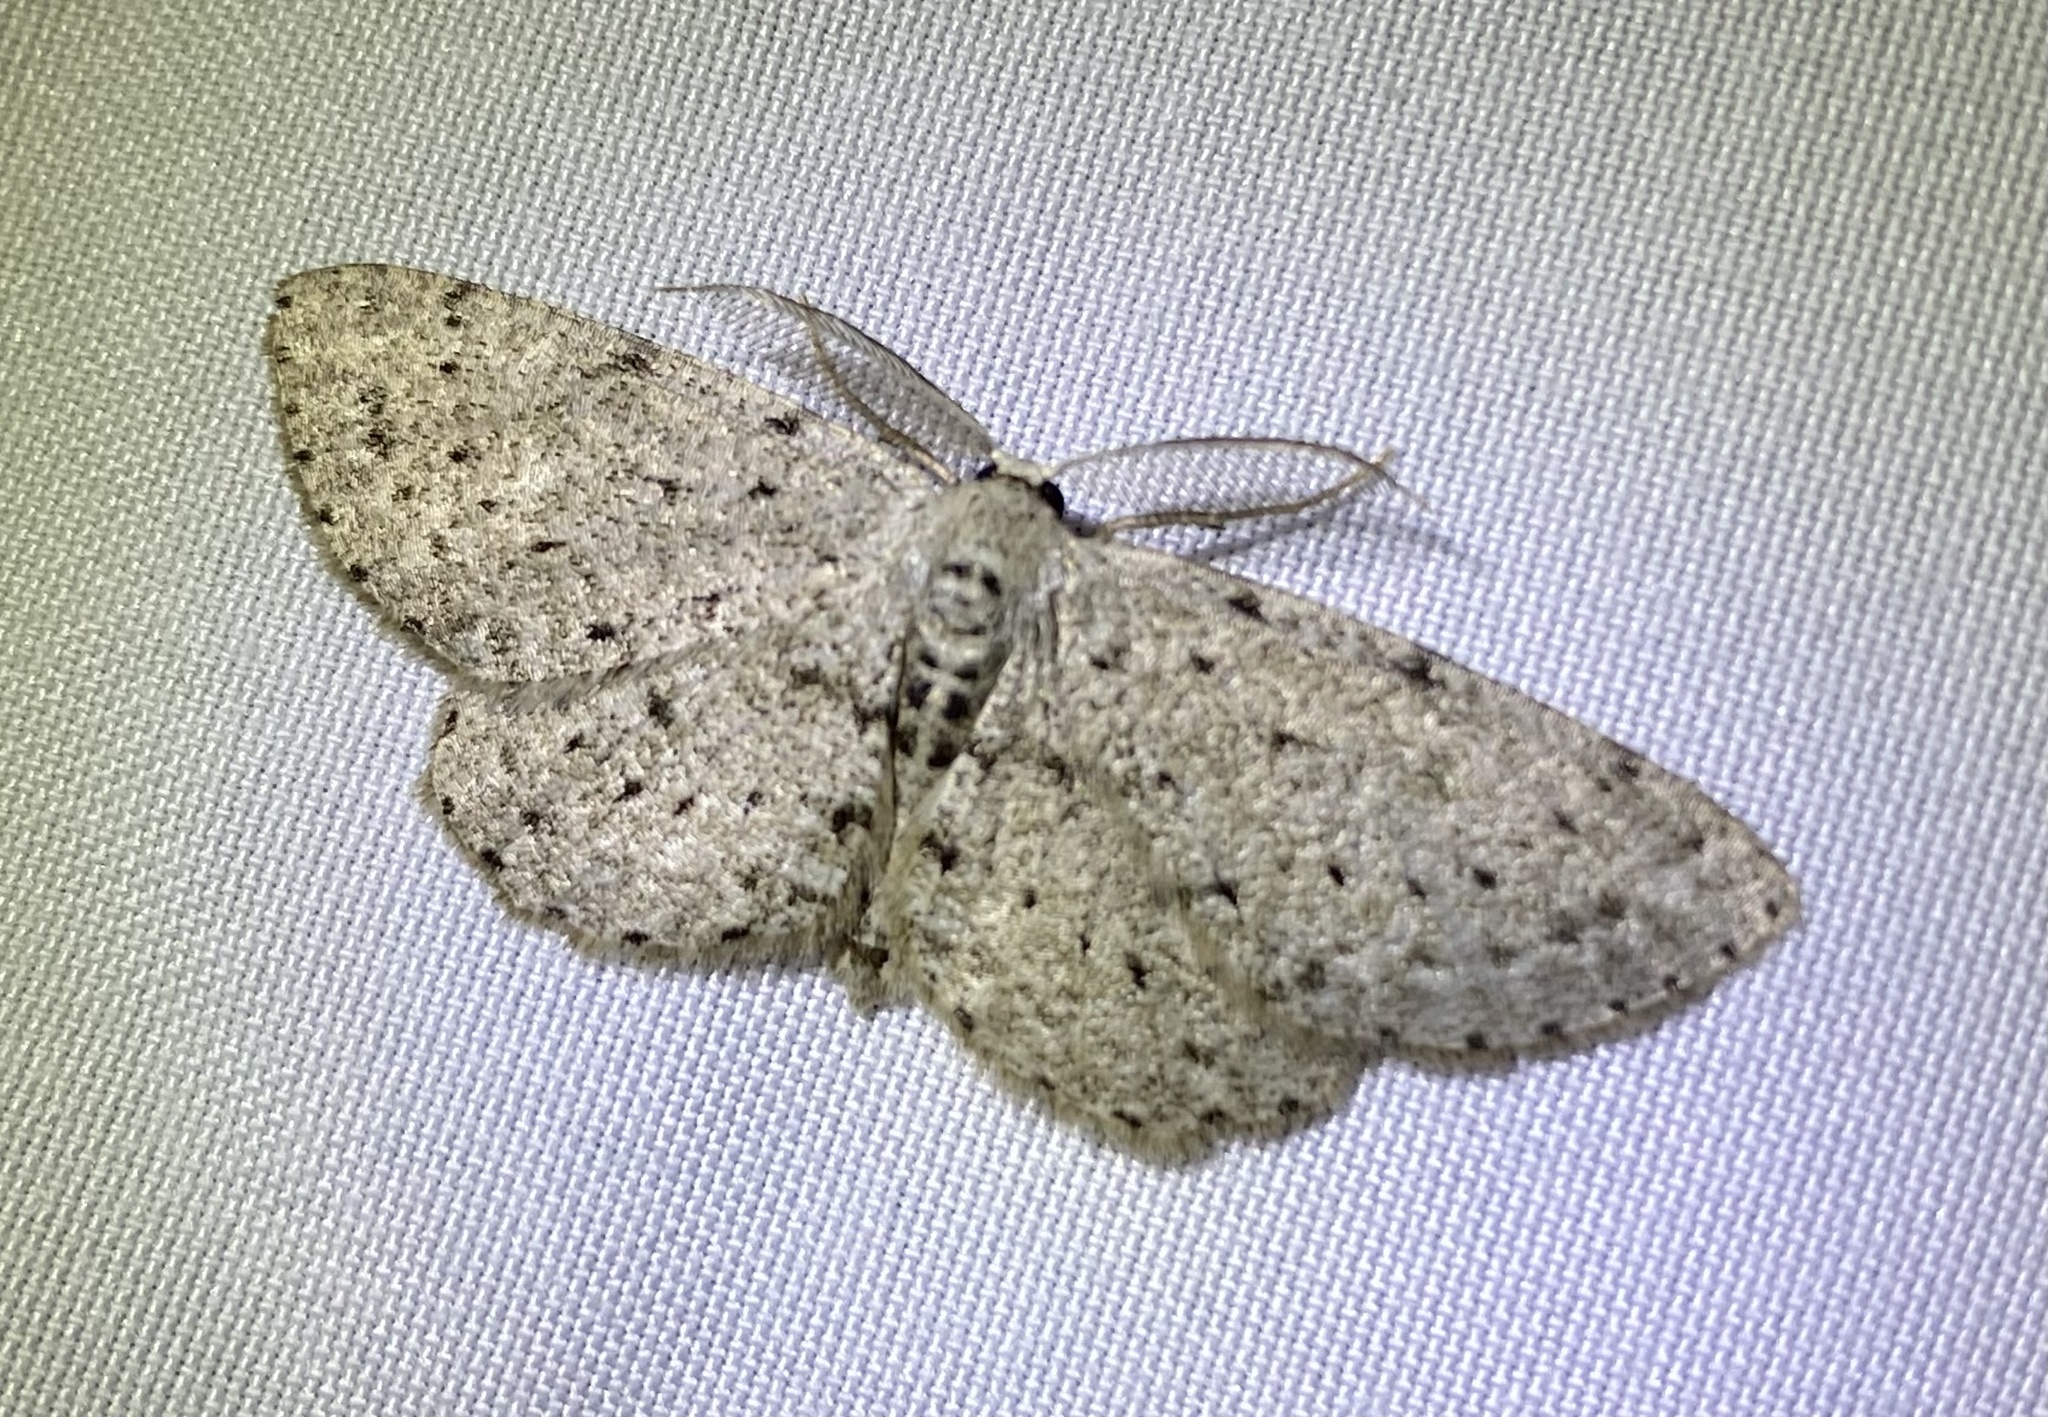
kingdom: Animalia
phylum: Arthropoda
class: Insecta
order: Lepidoptera
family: Geometridae
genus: Glena
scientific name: Glena cribrataria
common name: Dotted gray
